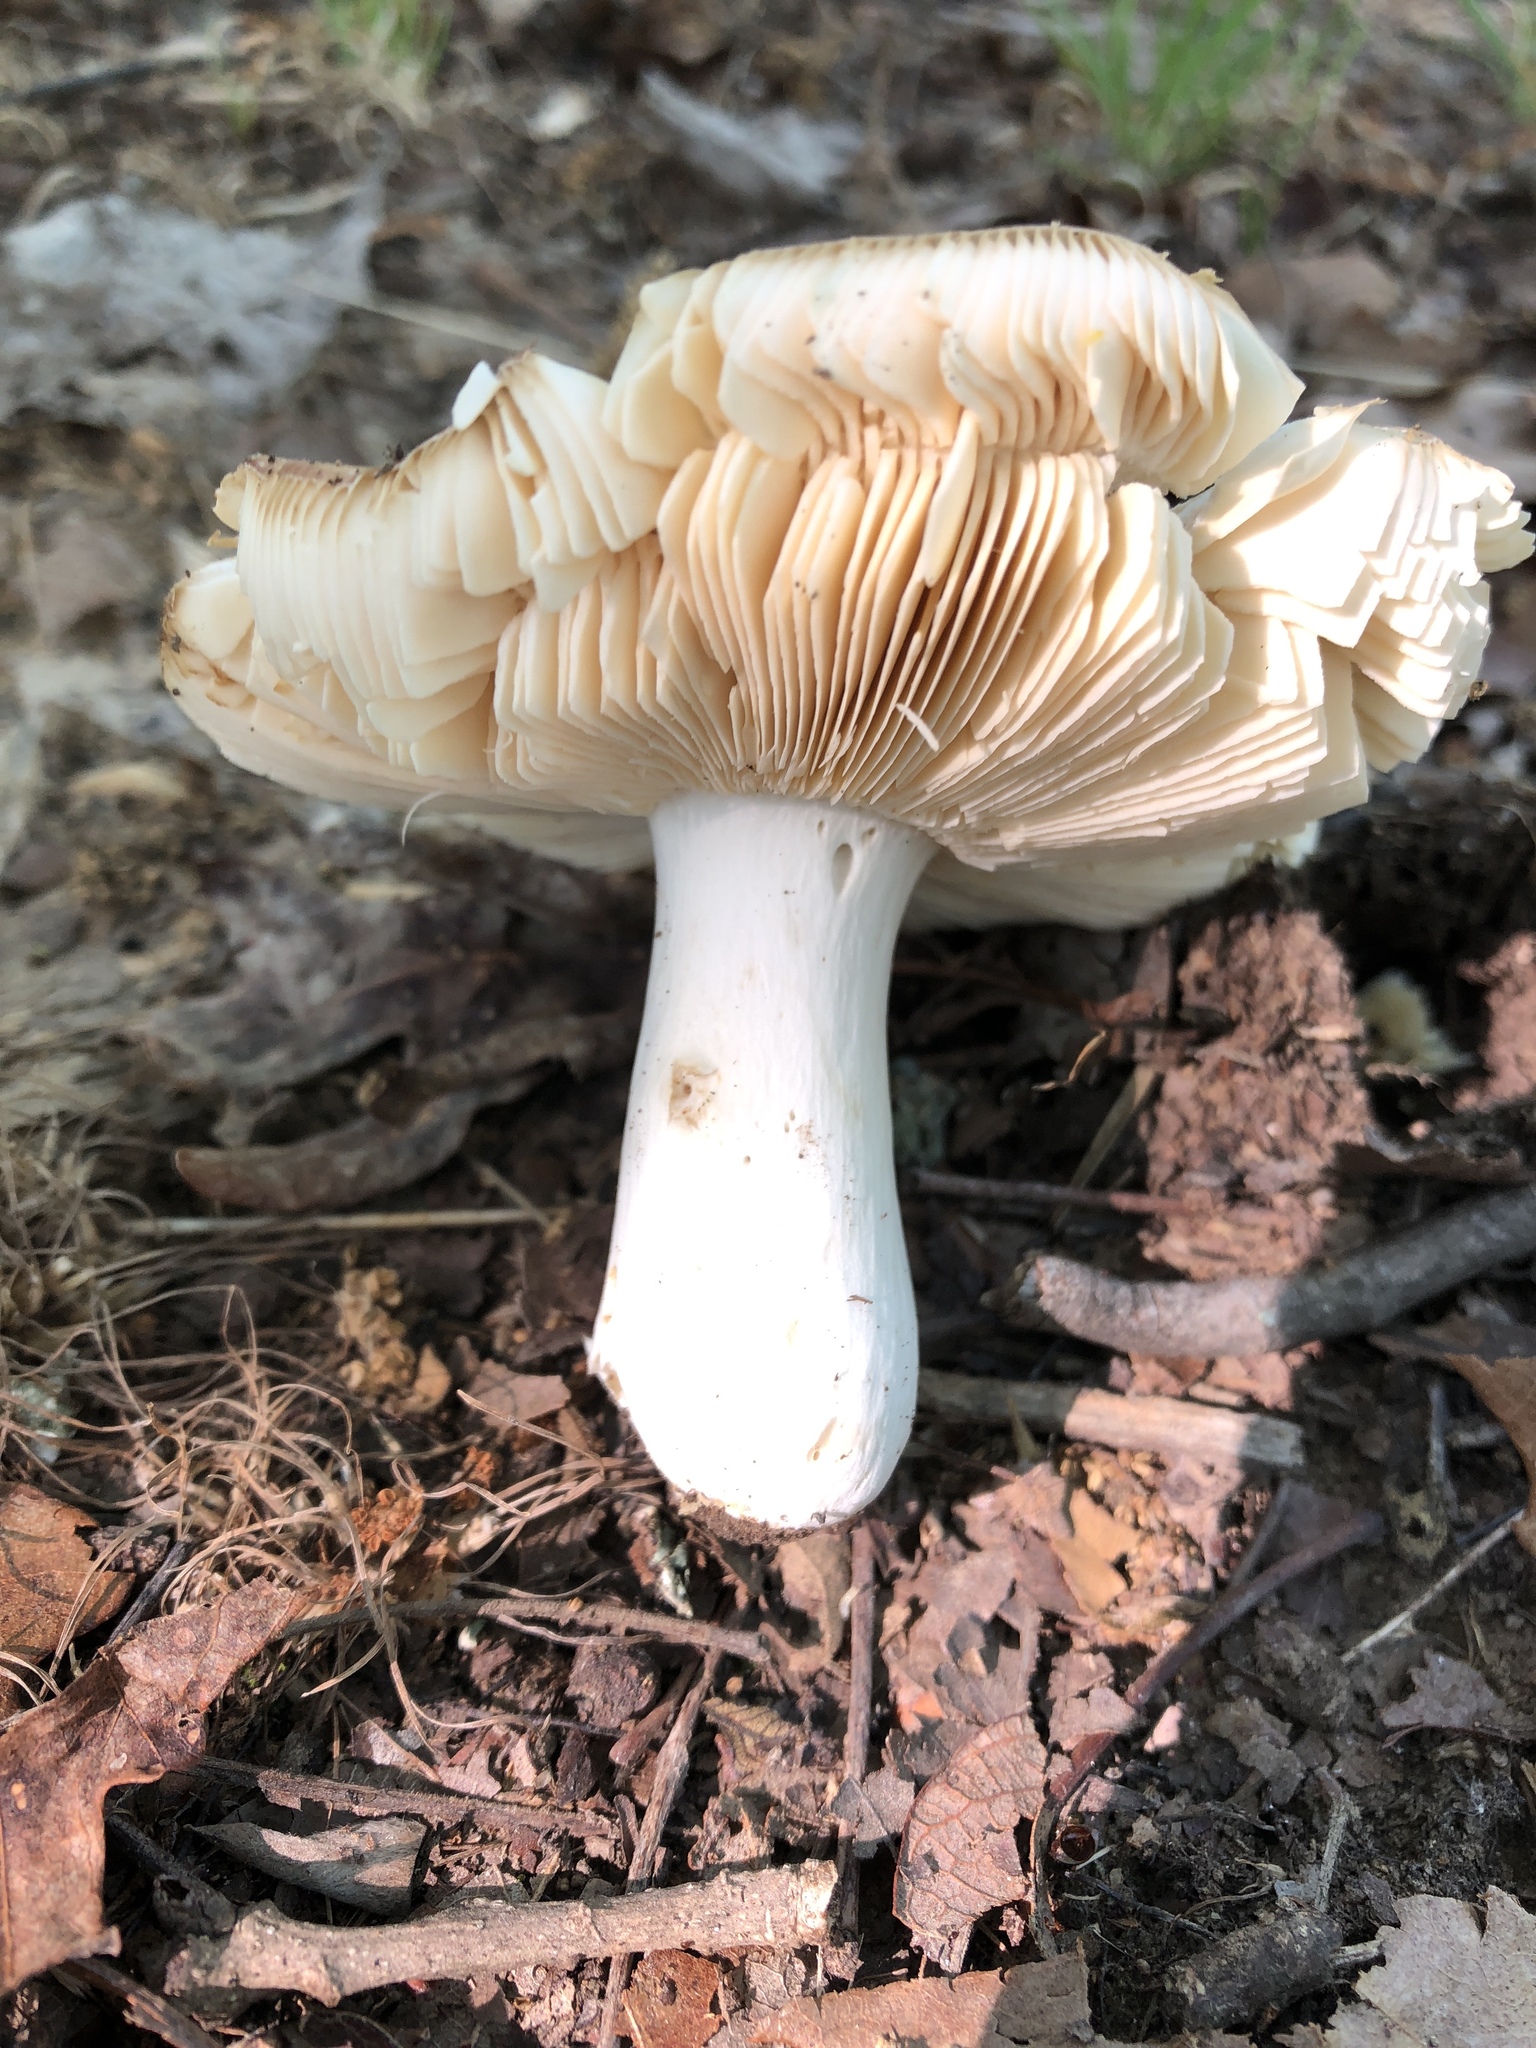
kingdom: Fungi
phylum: Basidiomycota
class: Agaricomycetes
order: Russulales
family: Russulaceae
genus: Russula
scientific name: Russula compacta
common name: Fishbiscuit russula
